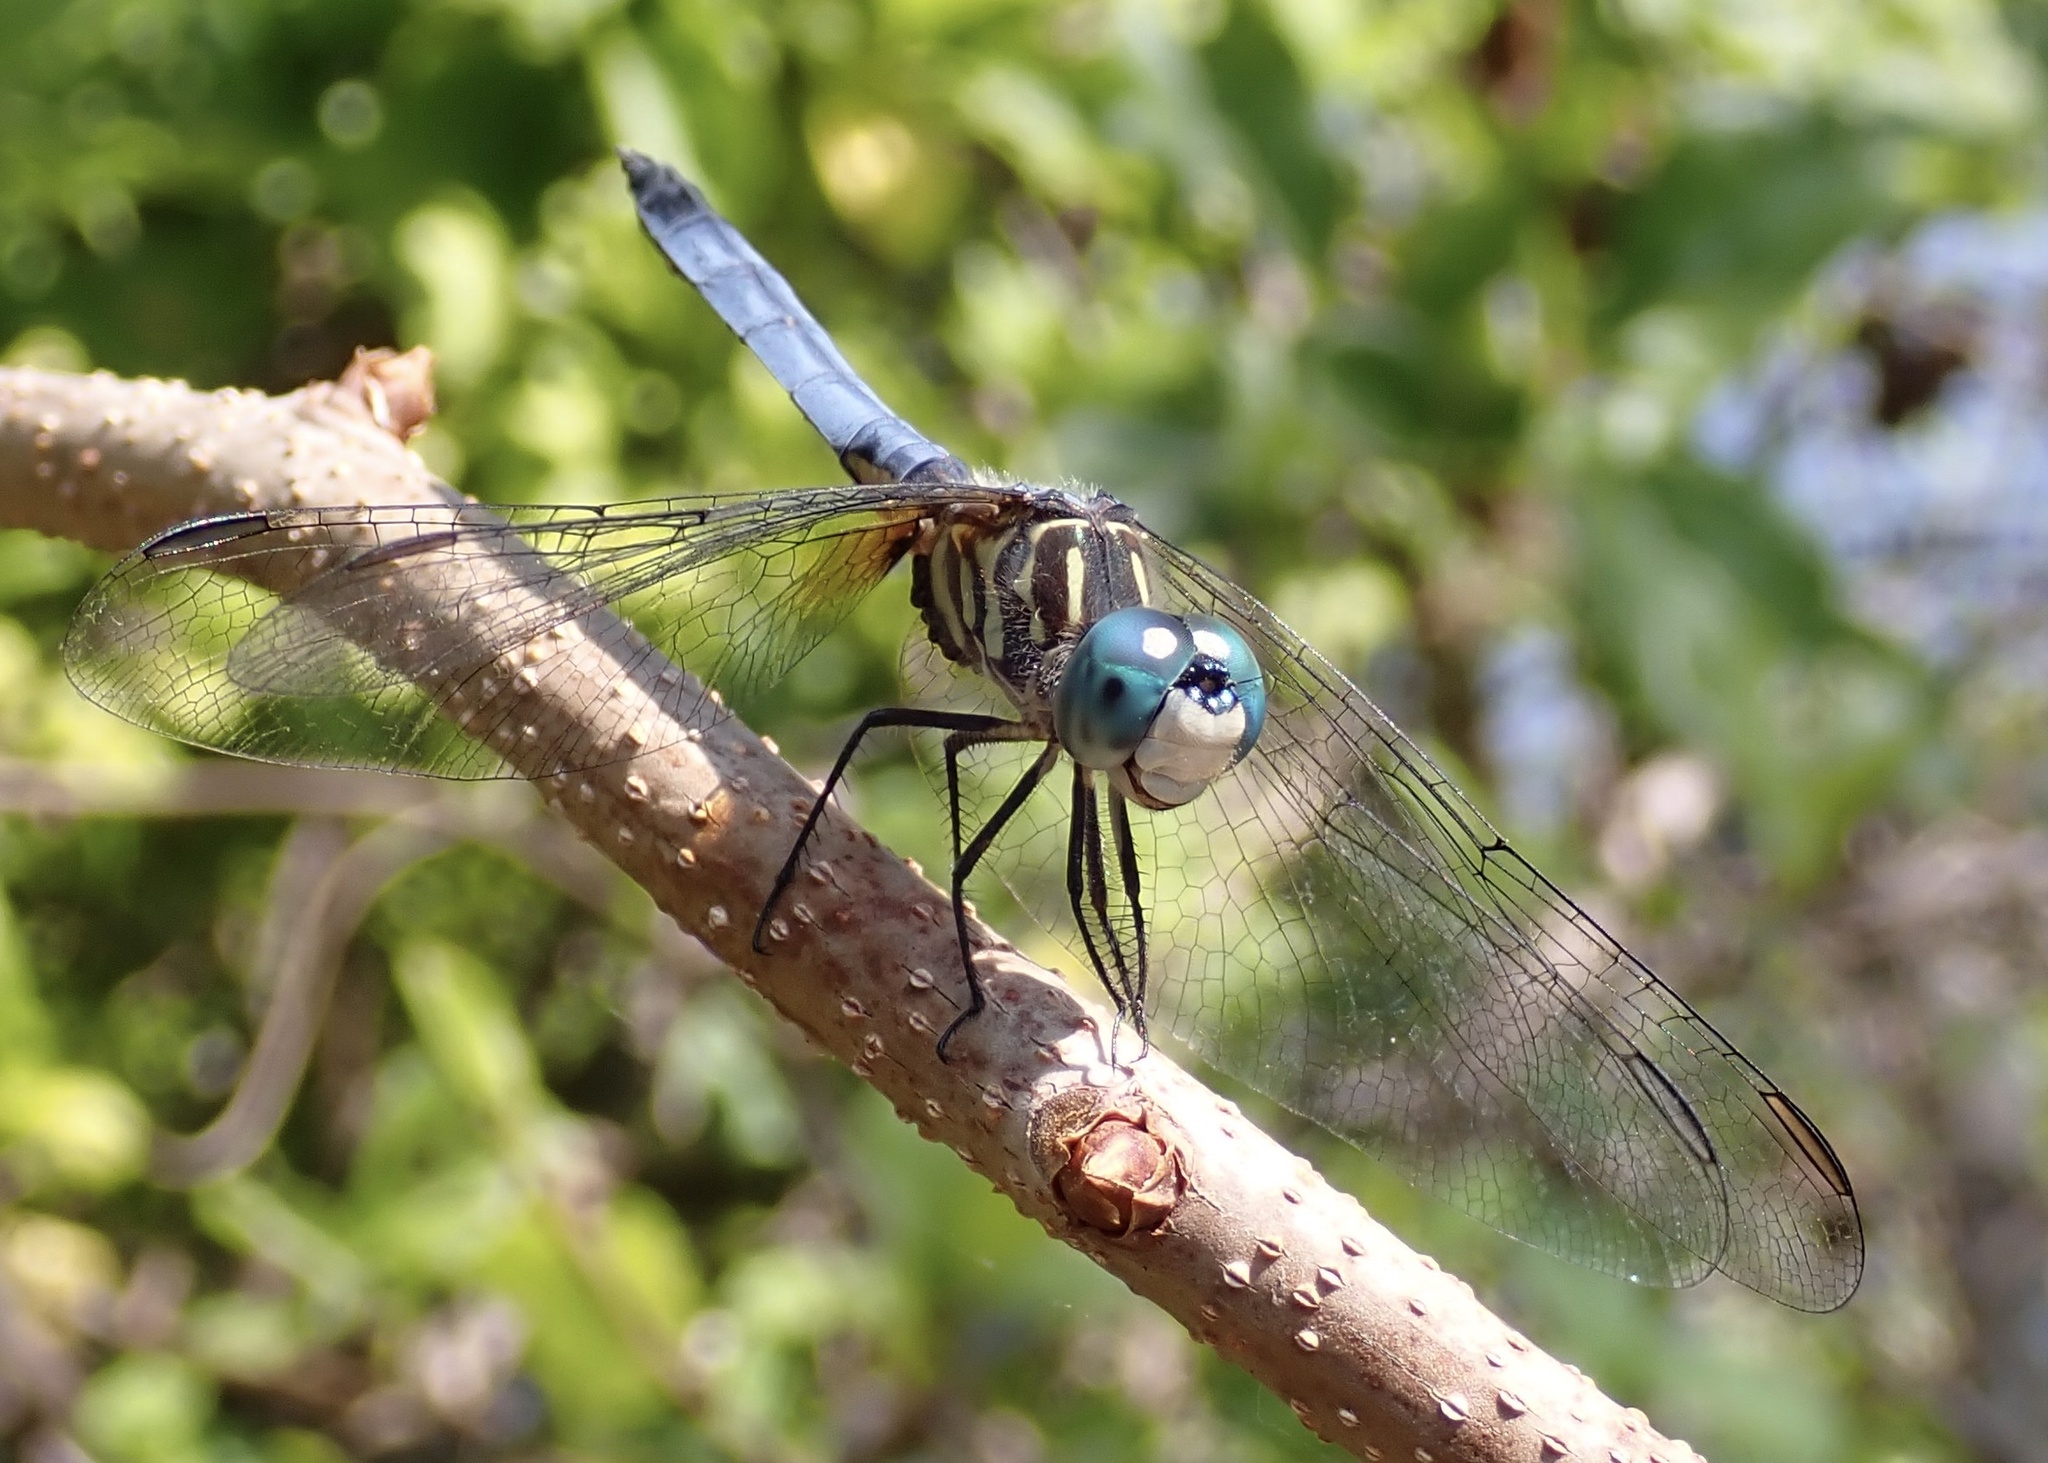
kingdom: Animalia
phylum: Arthropoda
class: Insecta
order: Odonata
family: Libellulidae
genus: Pachydiplax
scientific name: Pachydiplax longipennis
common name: Blue dasher
